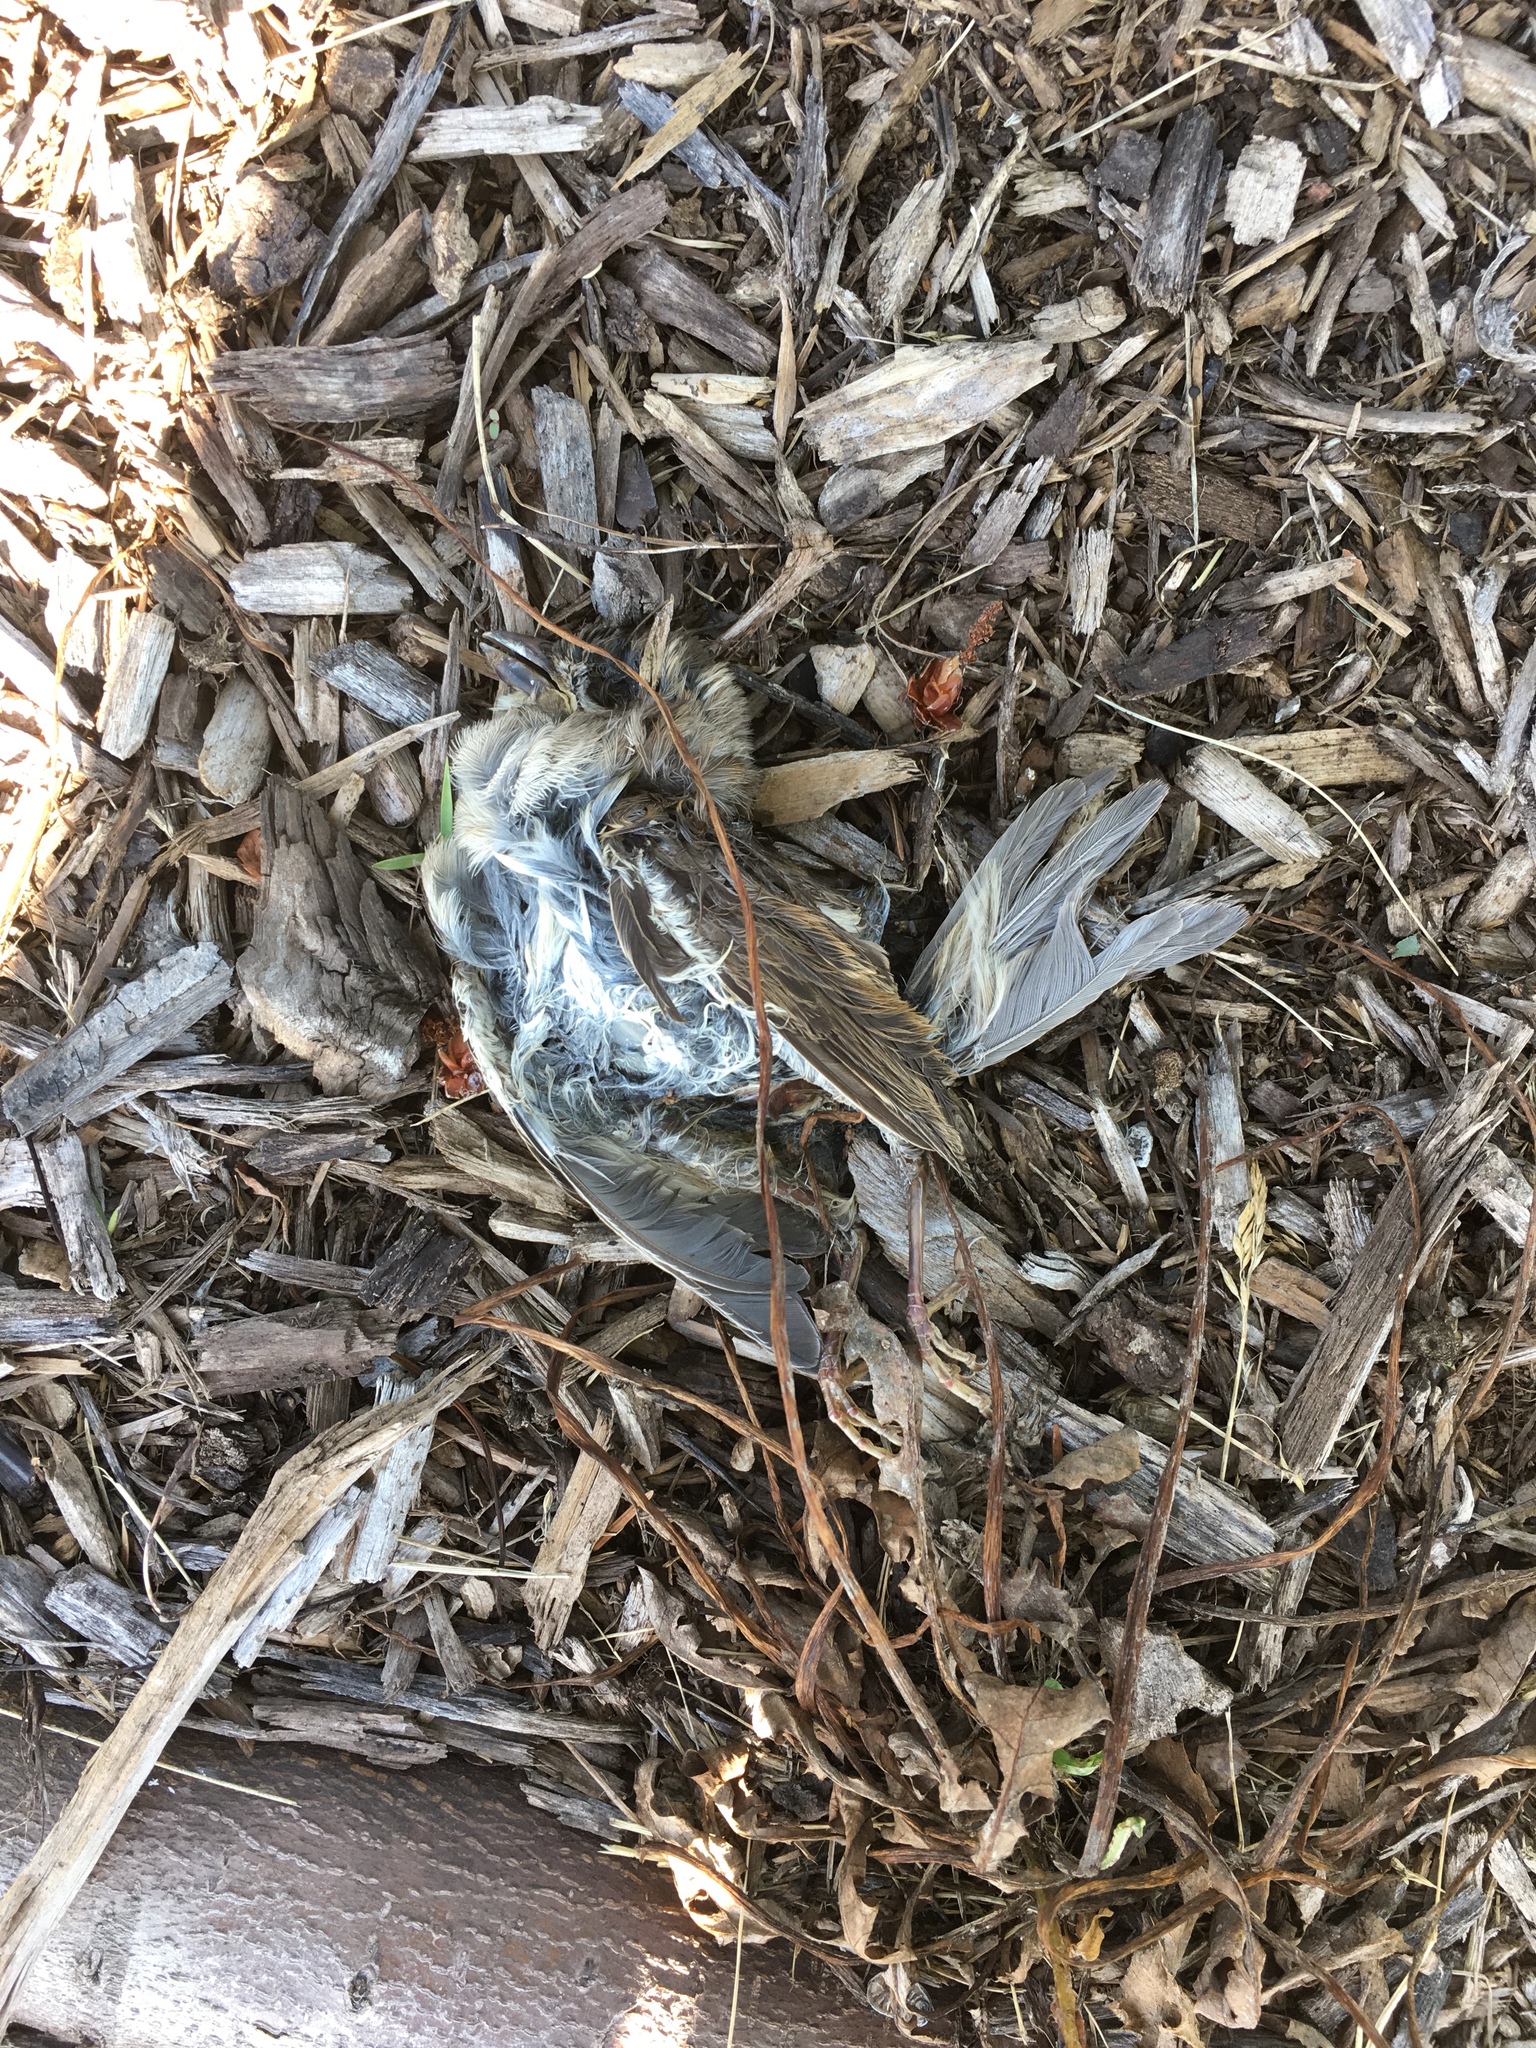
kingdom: Animalia
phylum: Chordata
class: Aves
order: Passeriformes
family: Passeridae
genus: Passer
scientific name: Passer domesticus
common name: House sparrow
